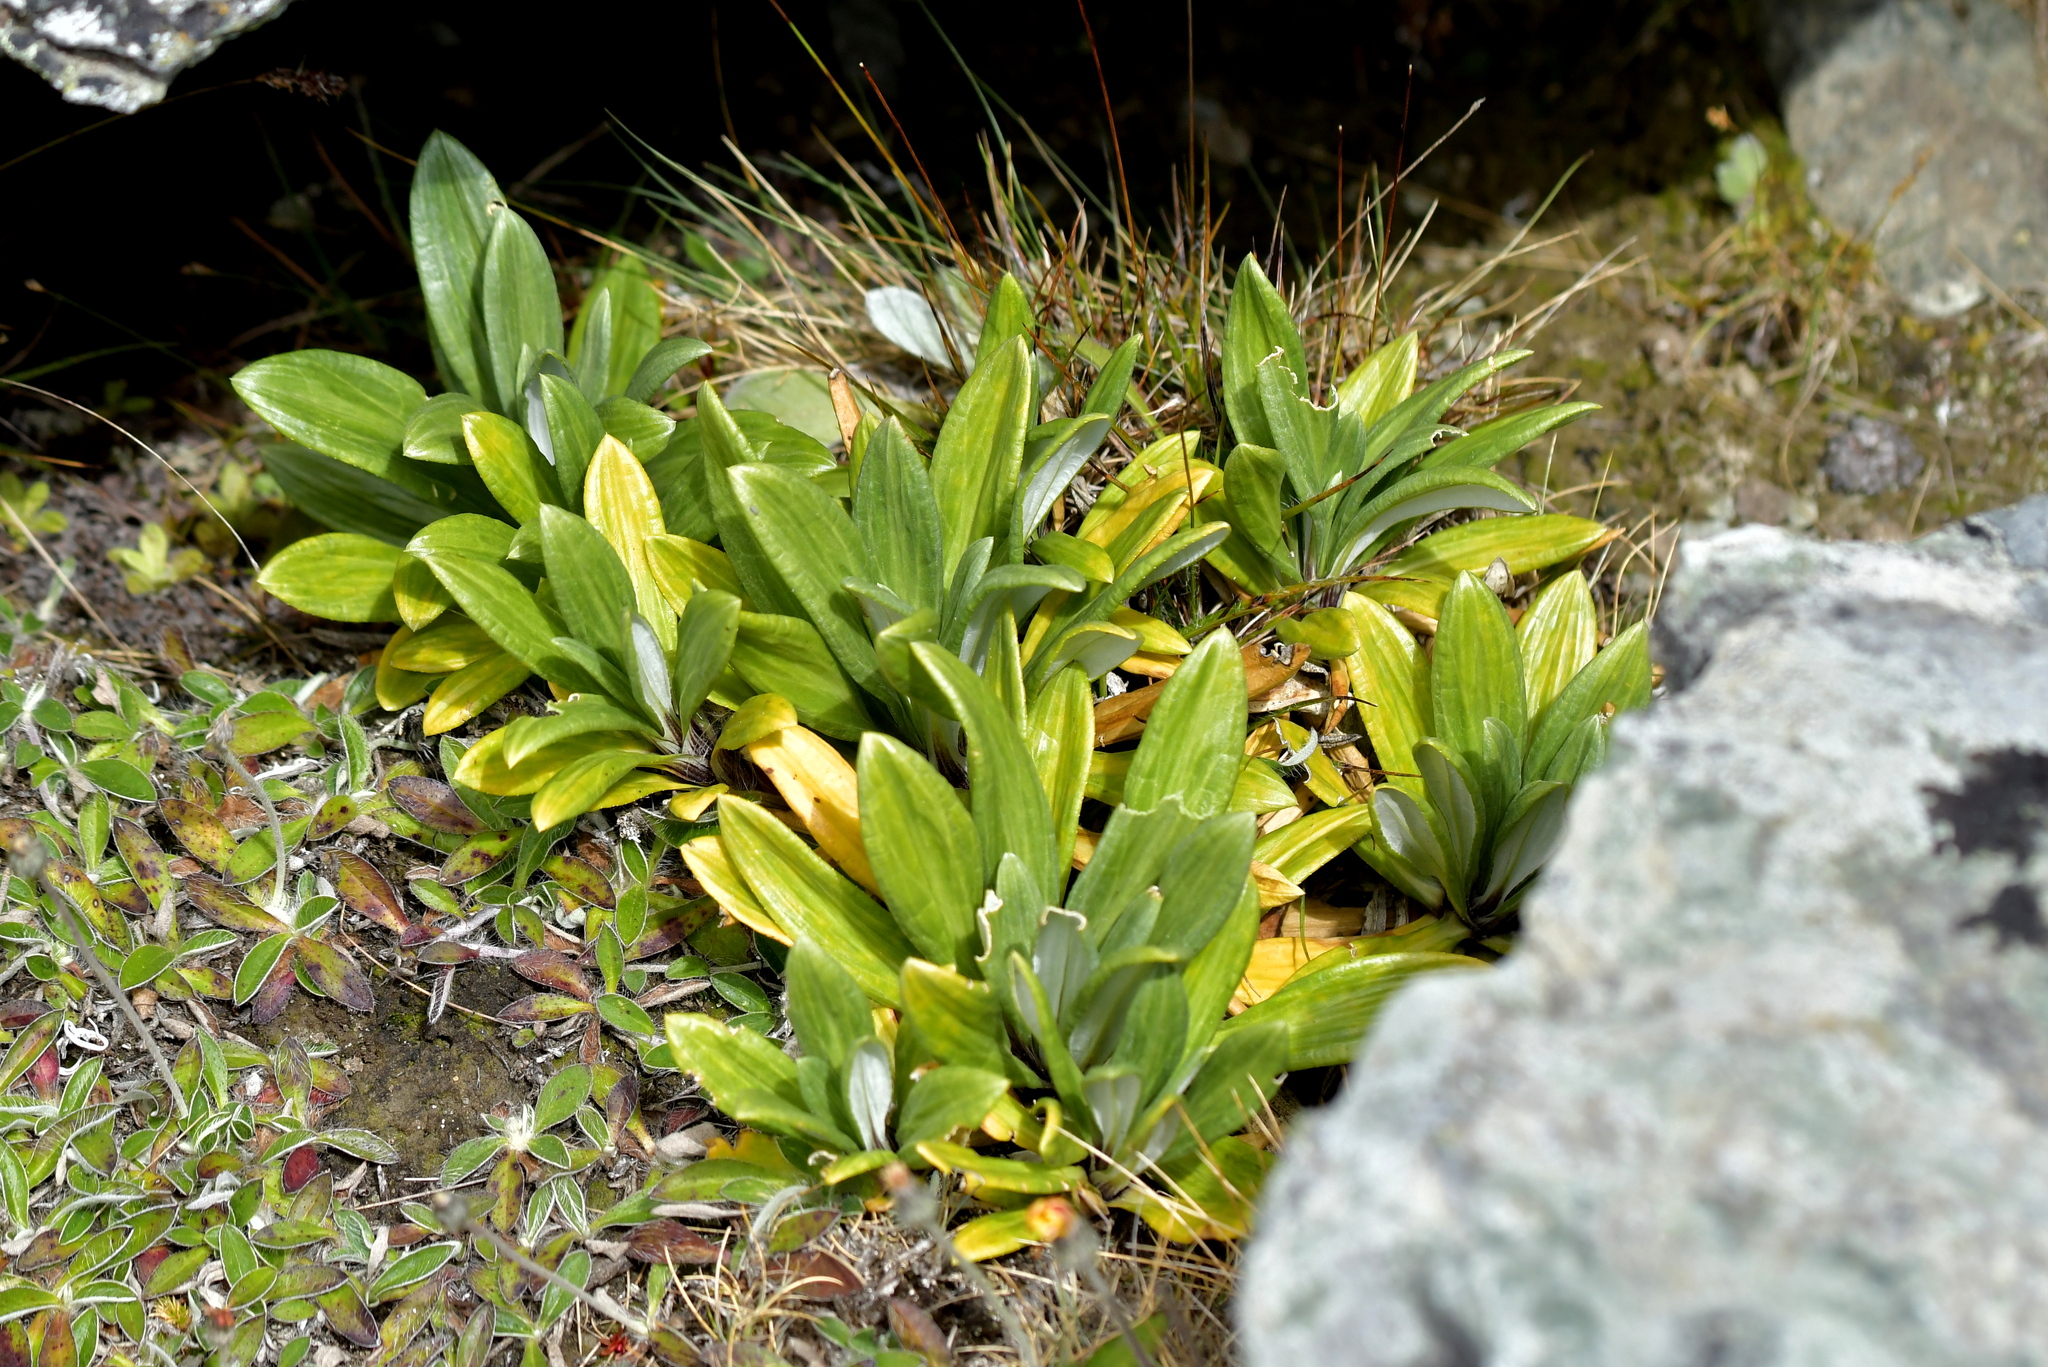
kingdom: Plantae
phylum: Tracheophyta
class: Magnoliopsida
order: Asterales
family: Asteraceae
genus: Celmisia
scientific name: Celmisia haastii
